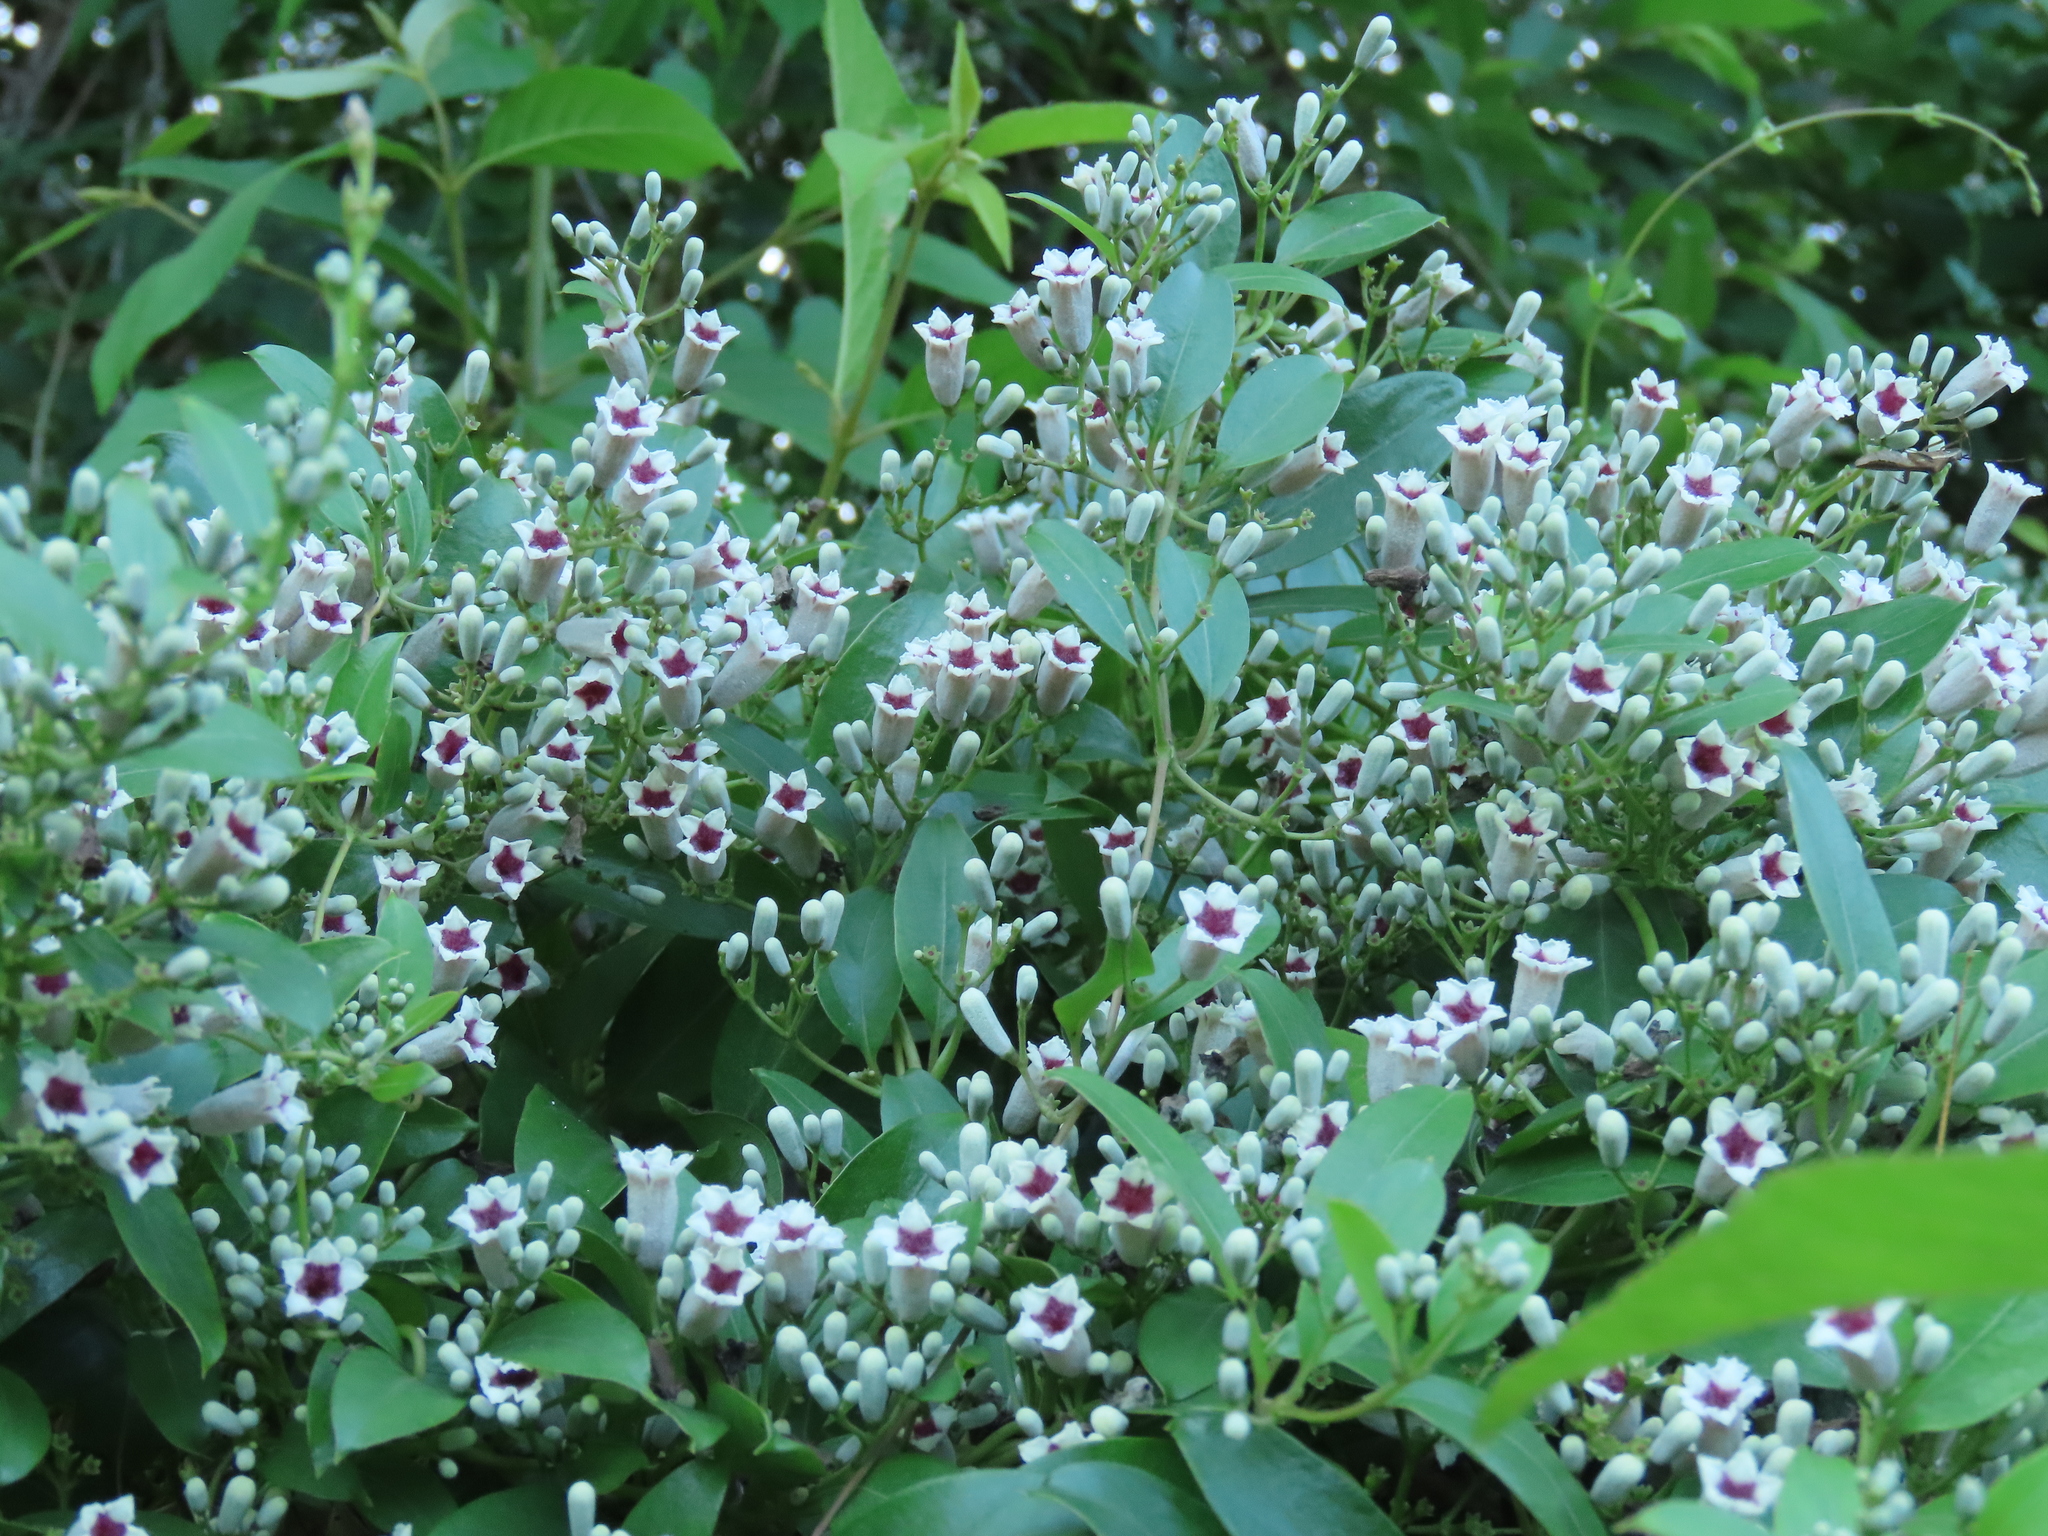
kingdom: Plantae
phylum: Tracheophyta
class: Magnoliopsida
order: Gentianales
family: Rubiaceae
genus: Paederia
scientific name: Paederia foetida
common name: Stinkvine
